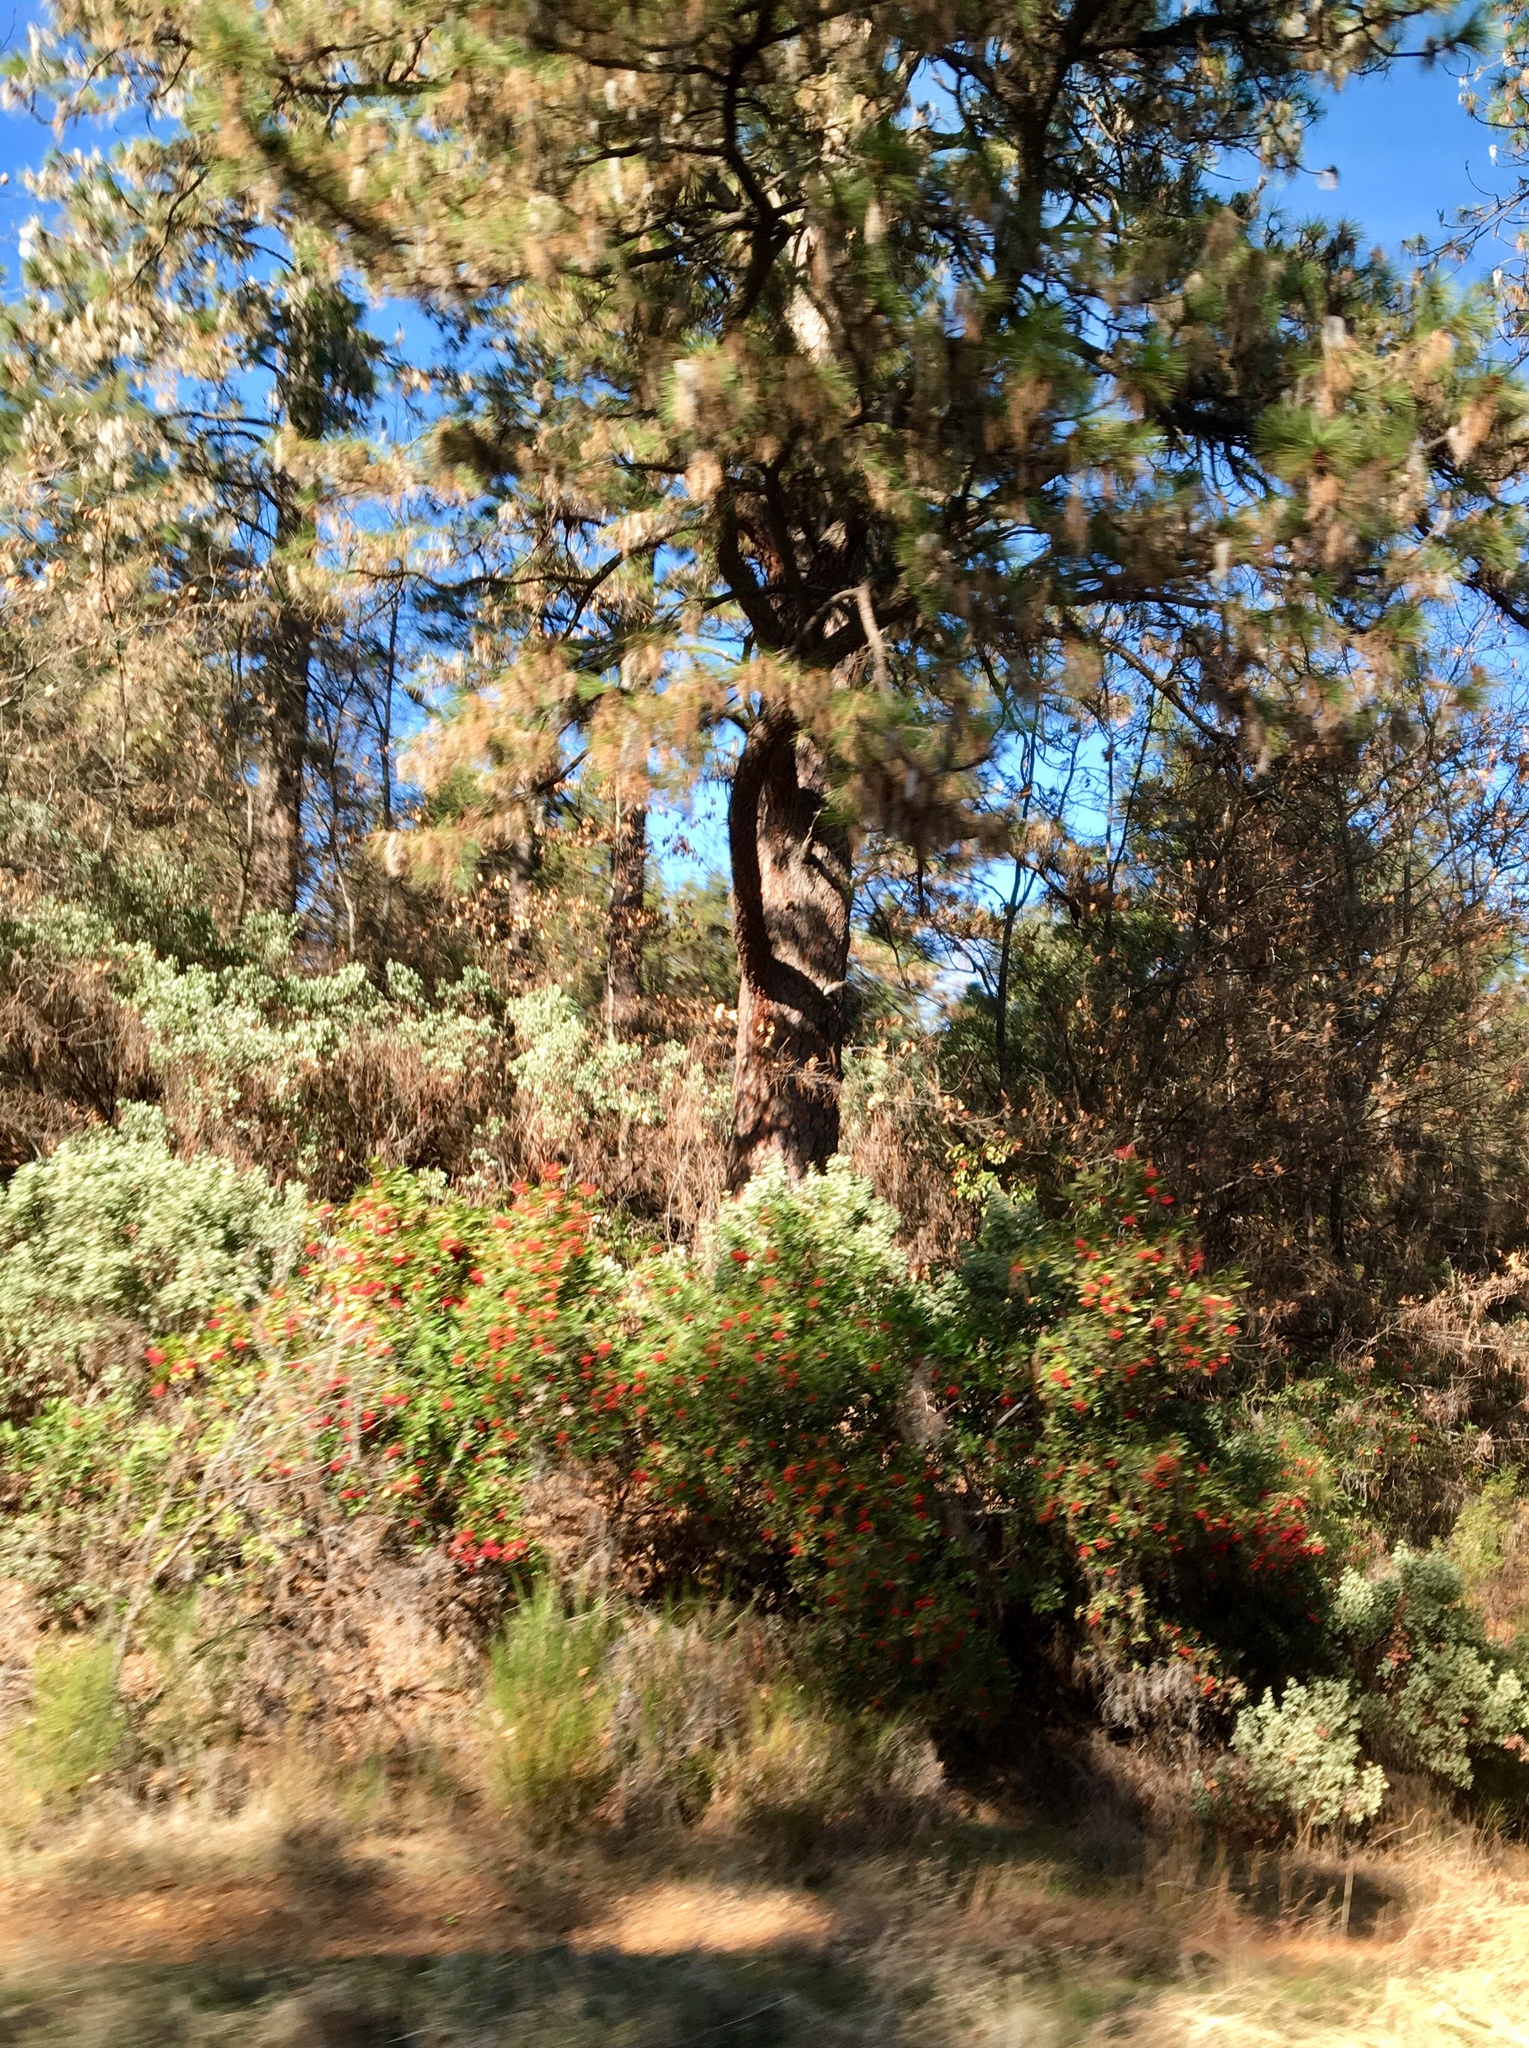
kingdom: Plantae
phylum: Tracheophyta
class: Magnoliopsida
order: Rosales
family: Rosaceae
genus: Heteromeles
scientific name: Heteromeles arbutifolia
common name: California-holly
